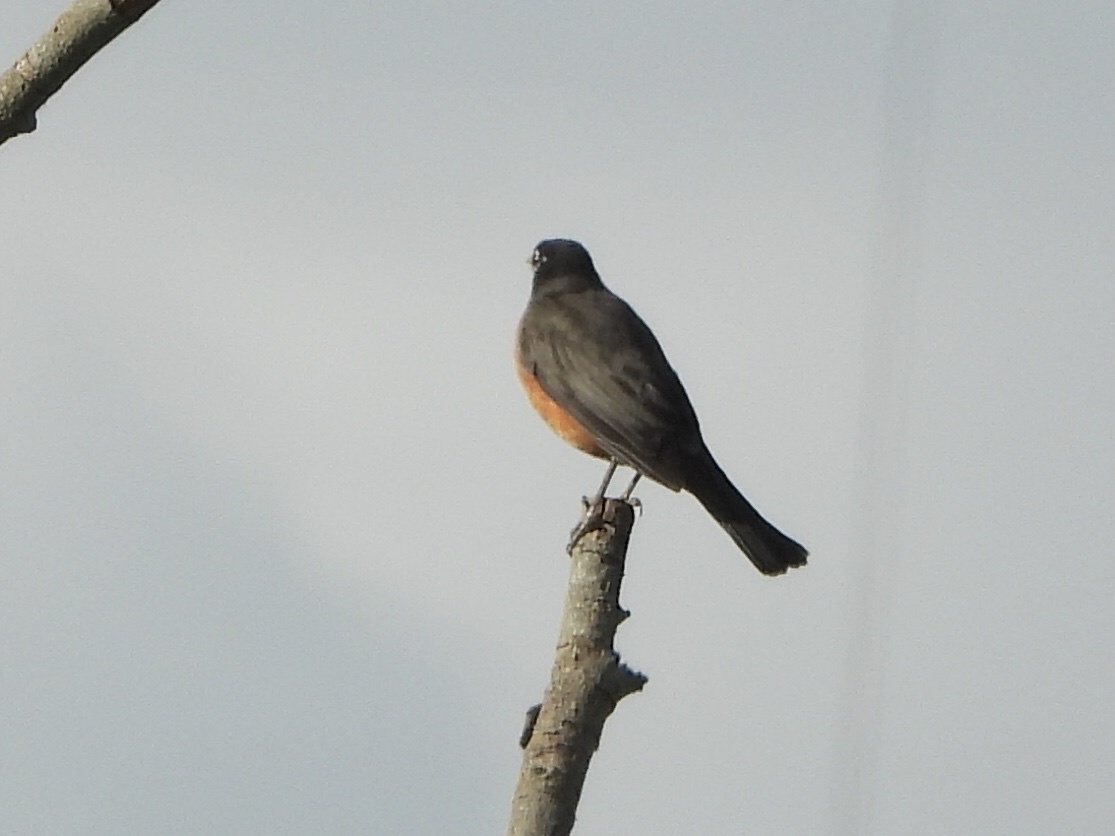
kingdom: Animalia
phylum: Chordata
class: Aves
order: Passeriformes
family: Turdidae
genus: Turdus
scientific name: Turdus migratorius
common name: American robin
